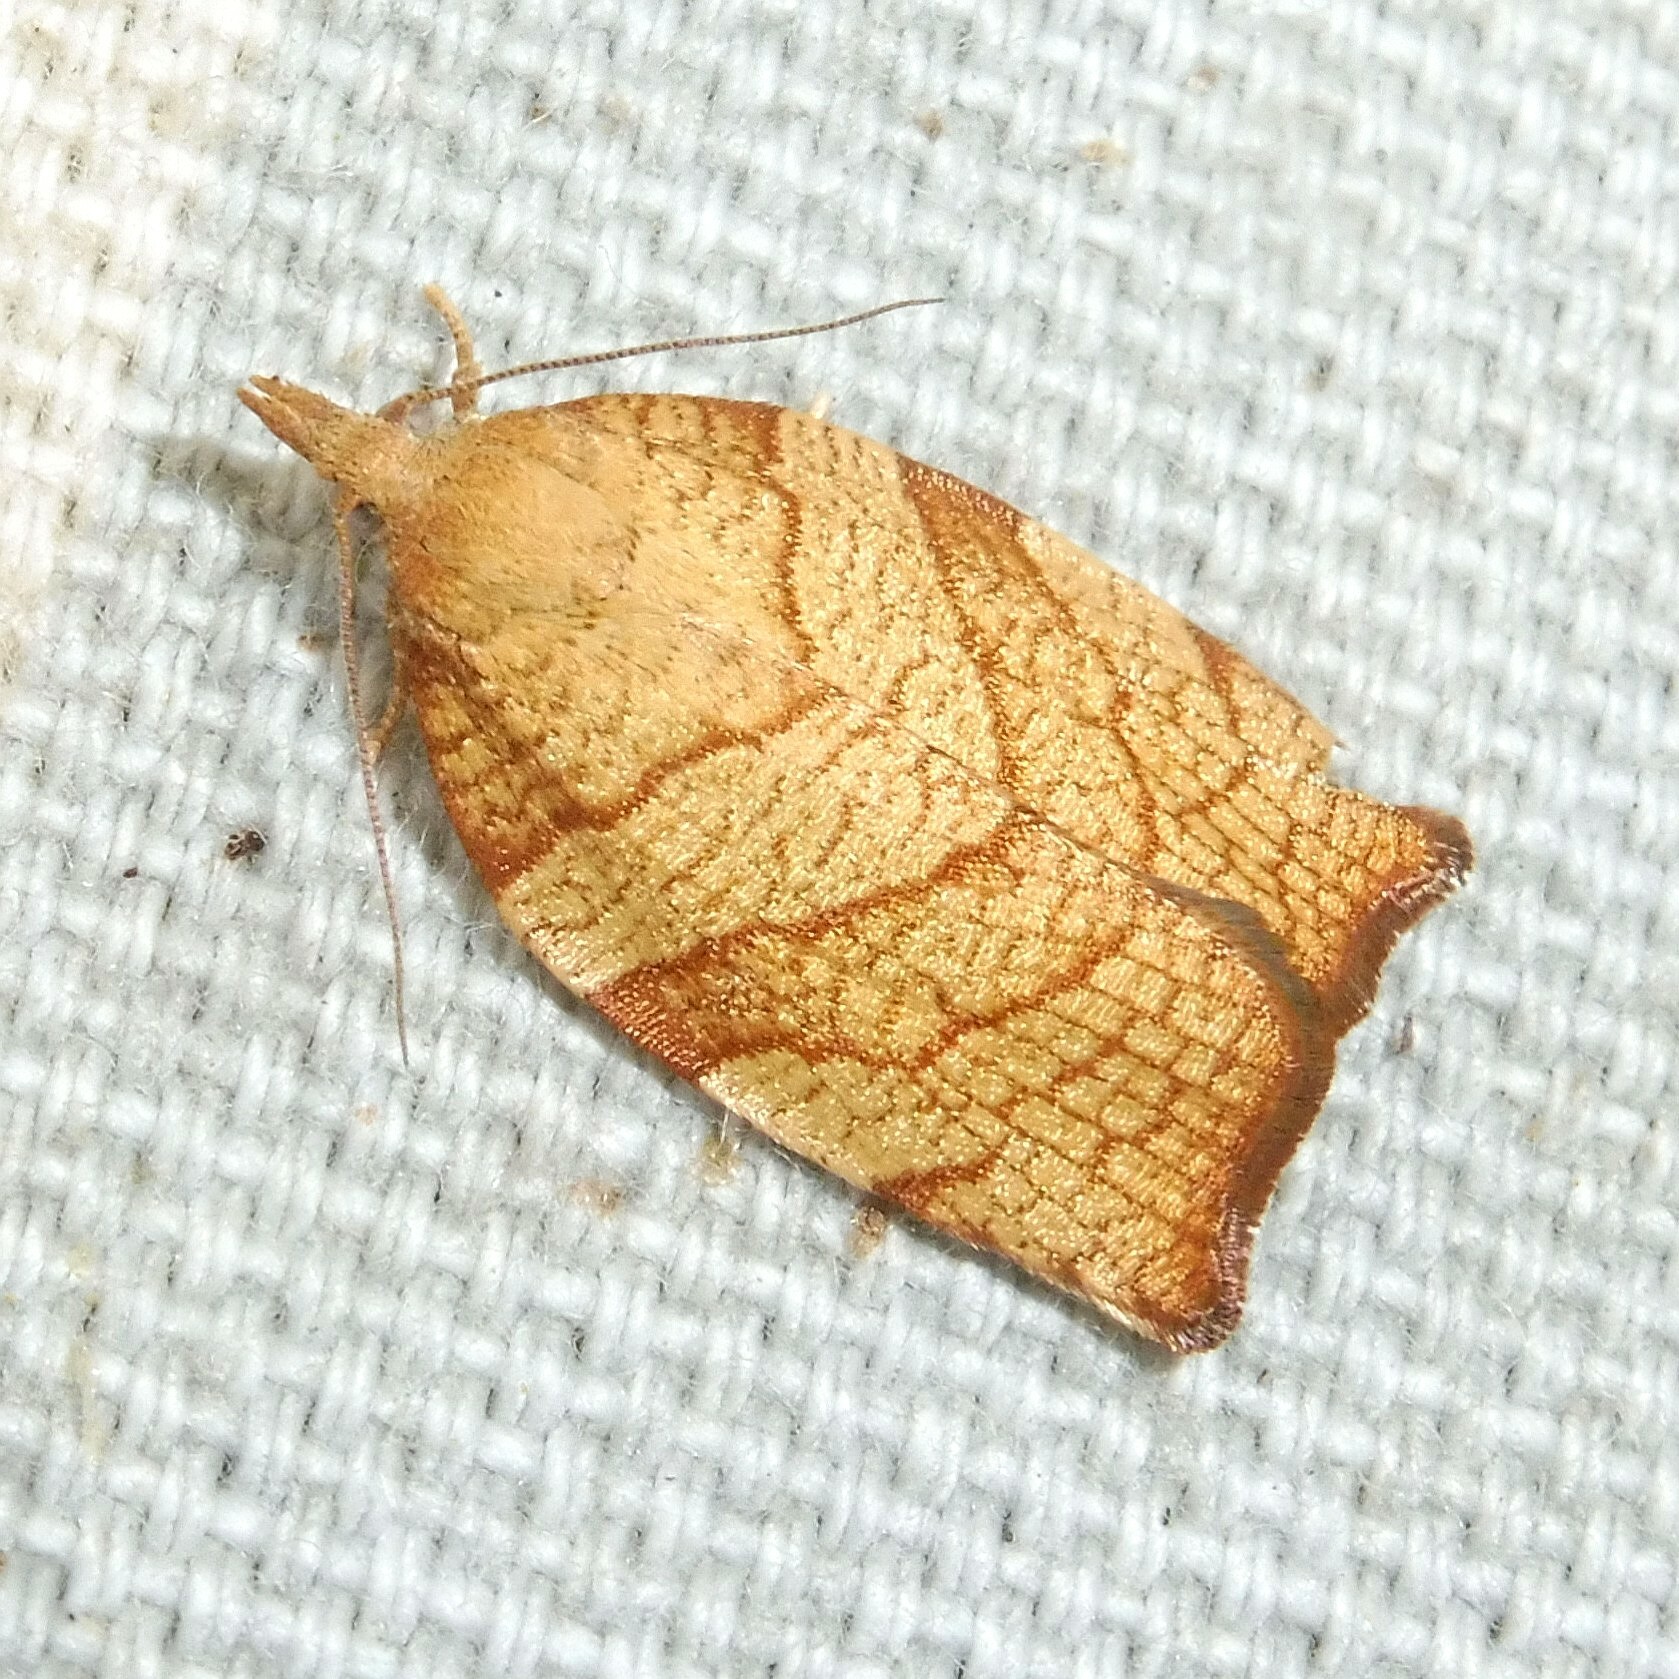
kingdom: Animalia
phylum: Arthropoda
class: Insecta
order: Lepidoptera
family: Tortricidae
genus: Pandemis
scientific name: Pandemis corylana
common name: Chequered fruit-tree tortrix
